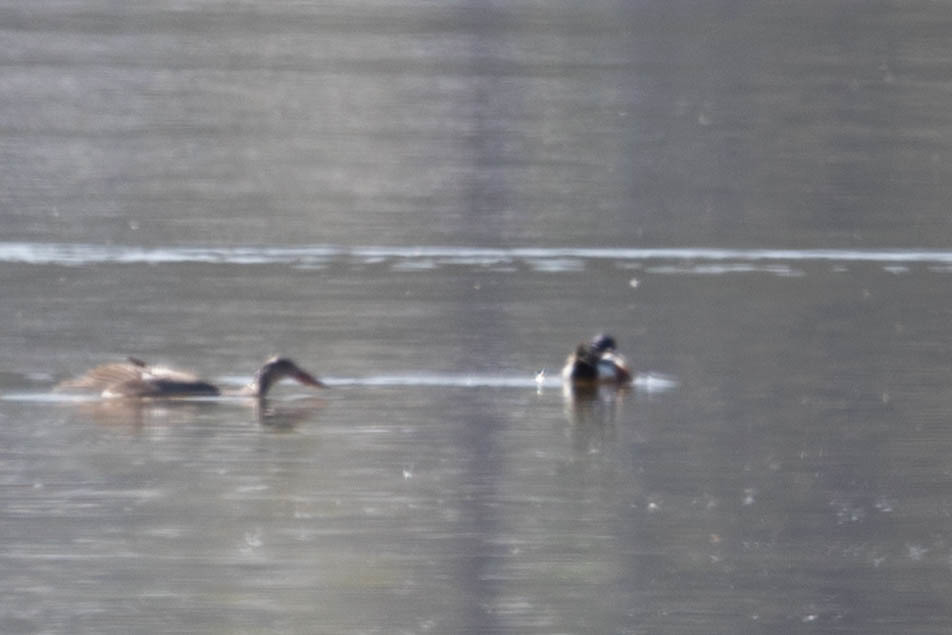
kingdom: Animalia
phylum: Chordata
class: Aves
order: Anseriformes
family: Anatidae
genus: Spatula
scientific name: Spatula clypeata
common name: Northern shoveler
